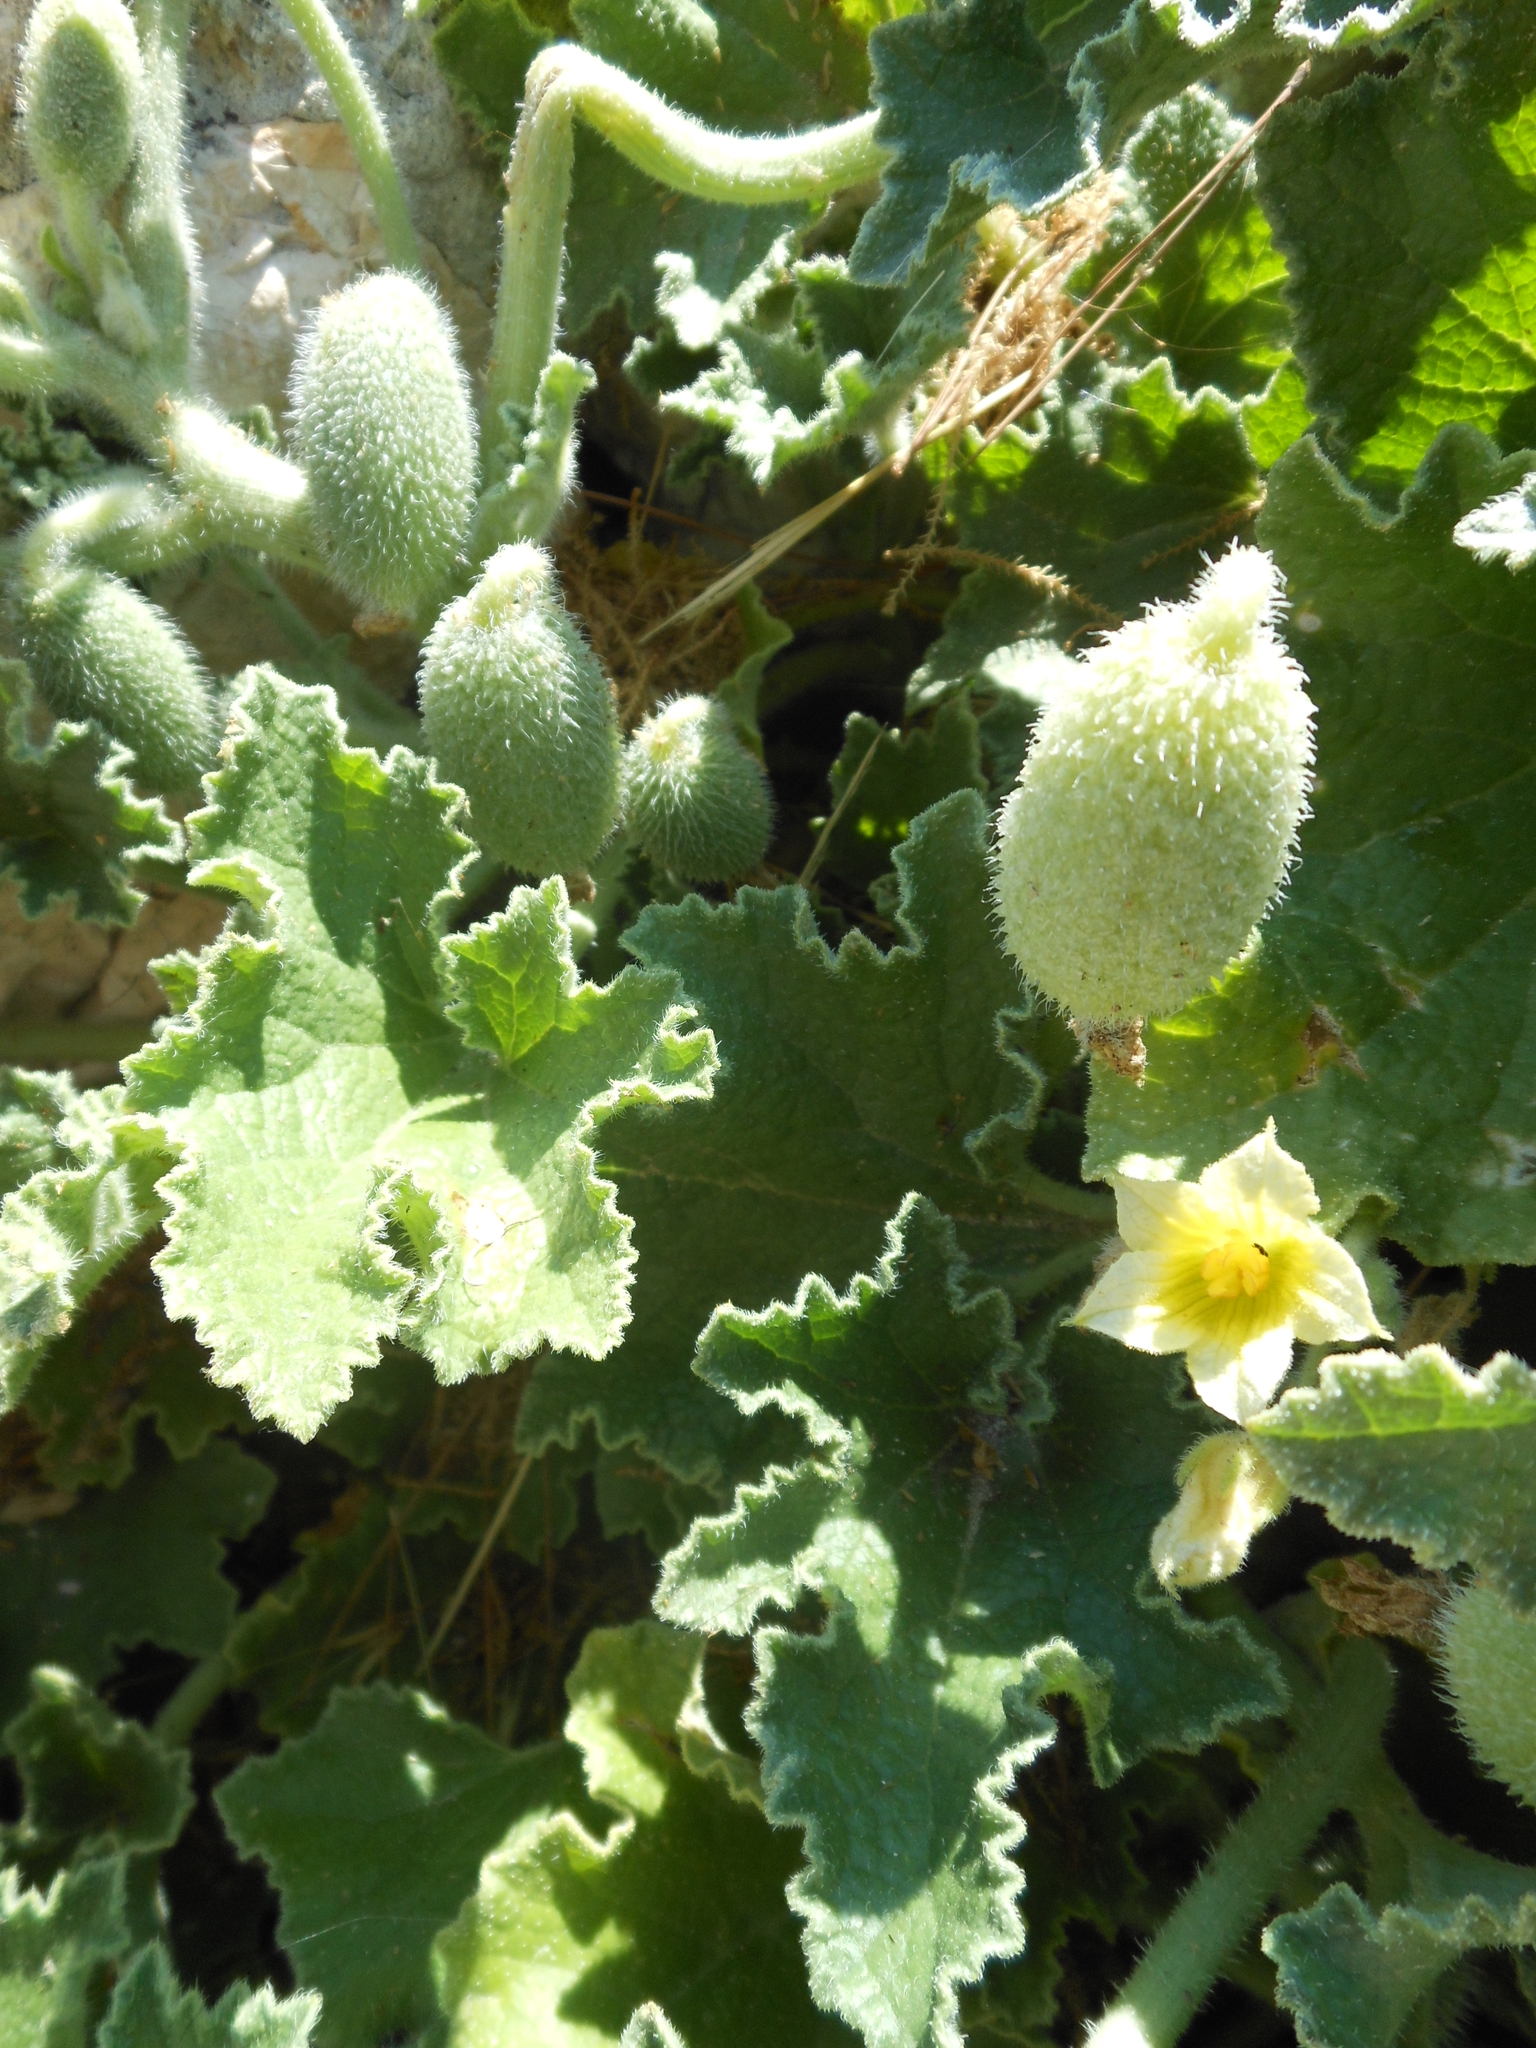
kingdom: Plantae
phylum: Tracheophyta
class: Magnoliopsida
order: Cucurbitales
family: Cucurbitaceae
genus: Ecballium
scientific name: Ecballium elaterium
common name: Squirting cucumber
